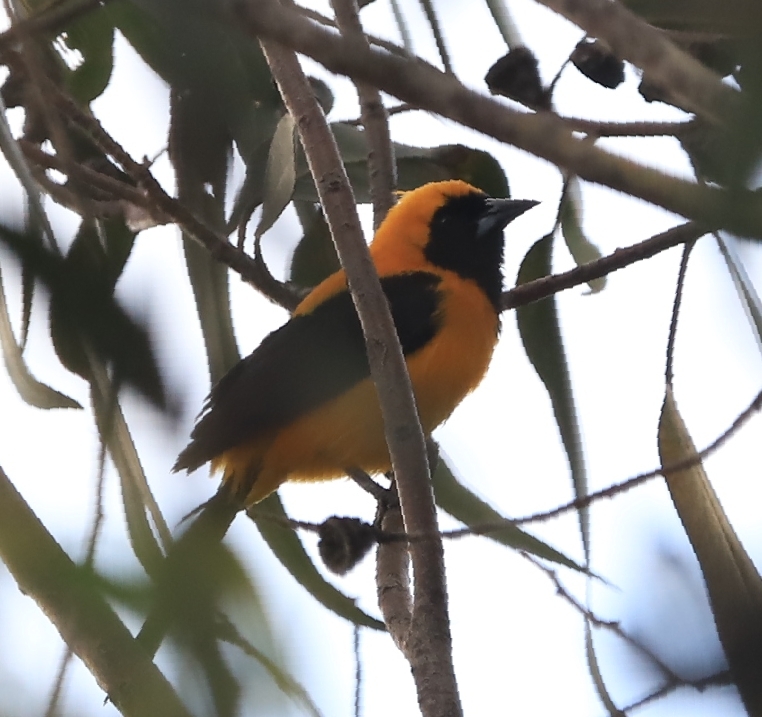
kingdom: Animalia
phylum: Chordata
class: Aves
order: Passeriformes
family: Icteridae
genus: Icterus
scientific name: Icterus chrysater
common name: Yellow-backed oriole
